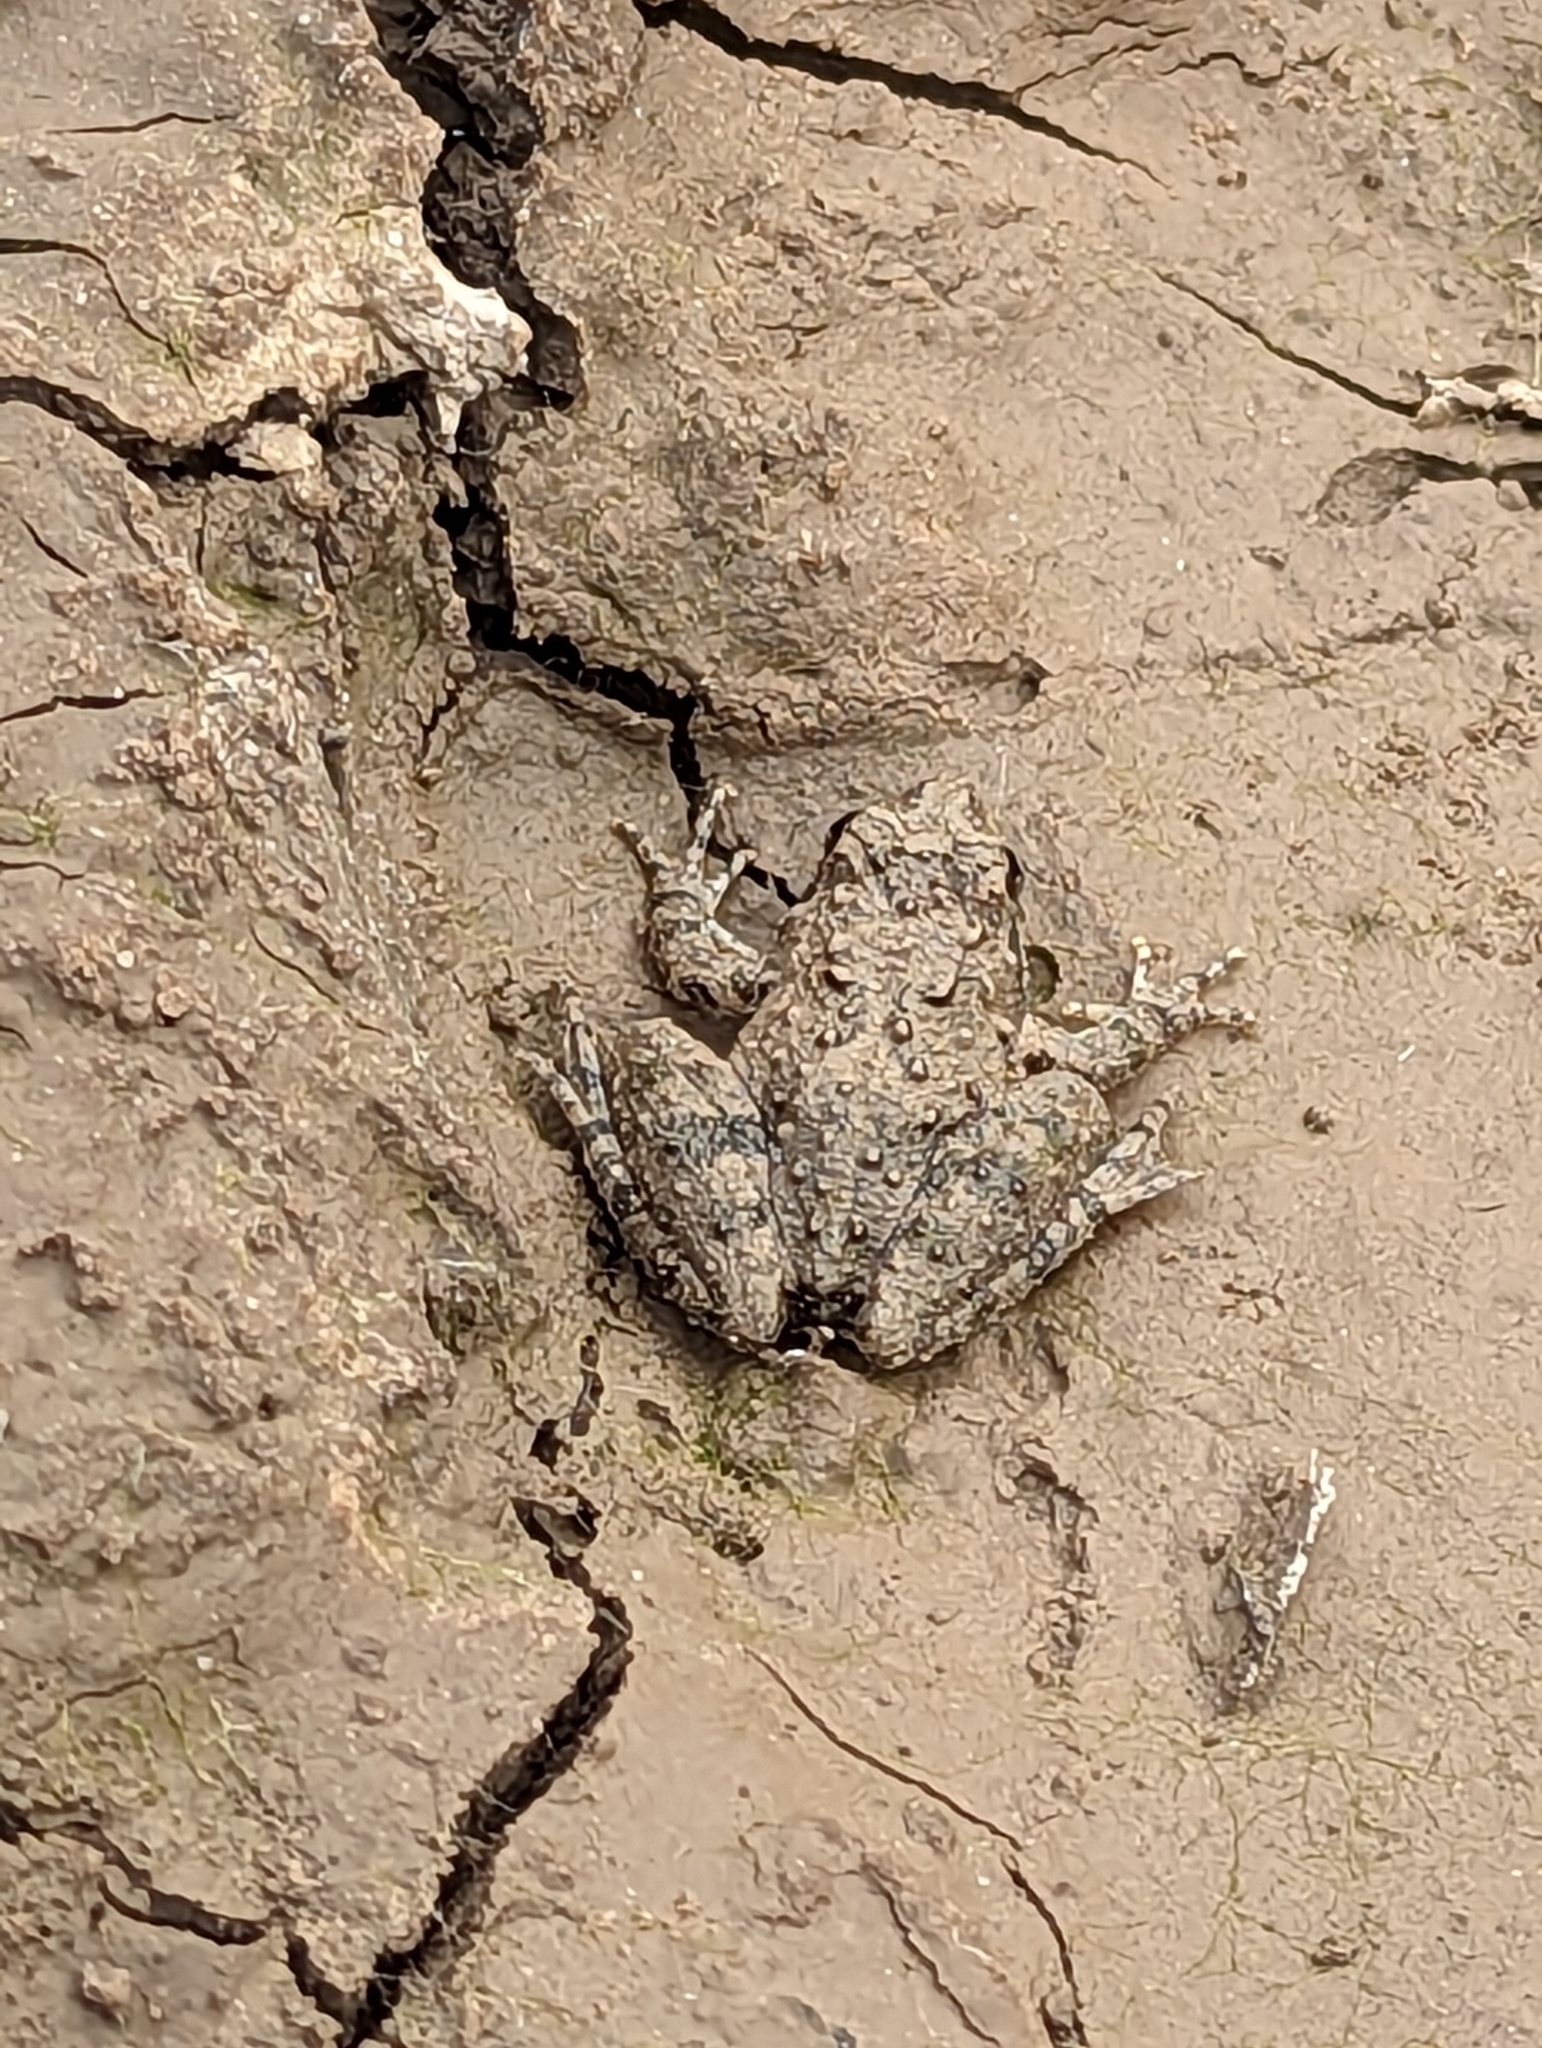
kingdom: Animalia
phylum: Chordata
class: Amphibia
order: Anura
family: Hylidae
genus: Acris
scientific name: Acris blanchardi
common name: Blanchard's cricket frog
